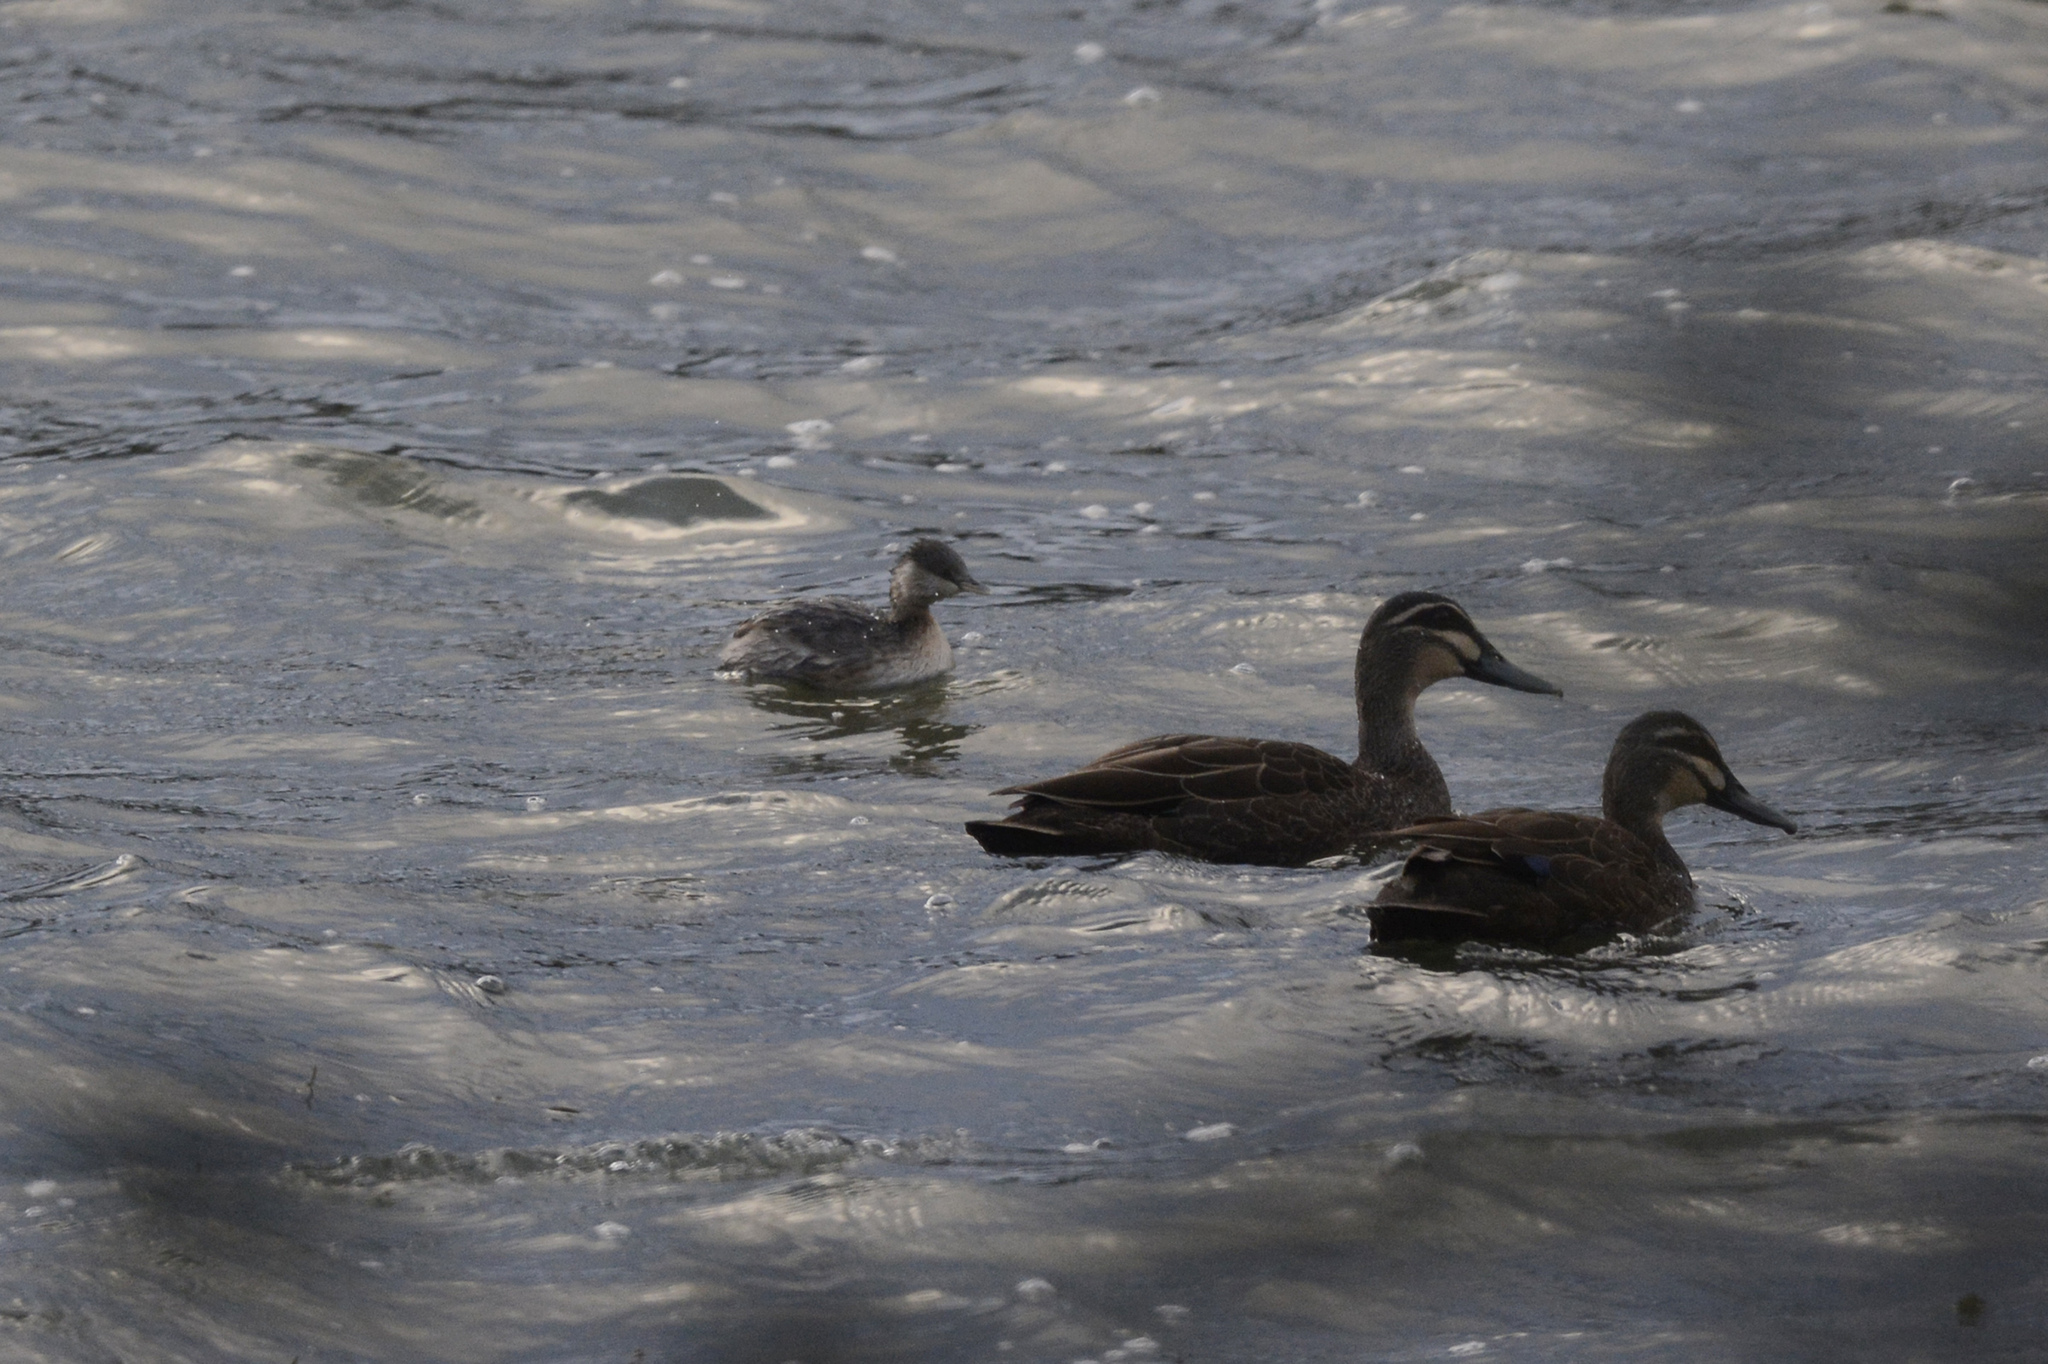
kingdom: Animalia
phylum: Chordata
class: Aves
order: Podicipediformes
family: Podicipedidae
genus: Poliocephalus
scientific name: Poliocephalus poliocephalus
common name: Hoary-headed grebe
